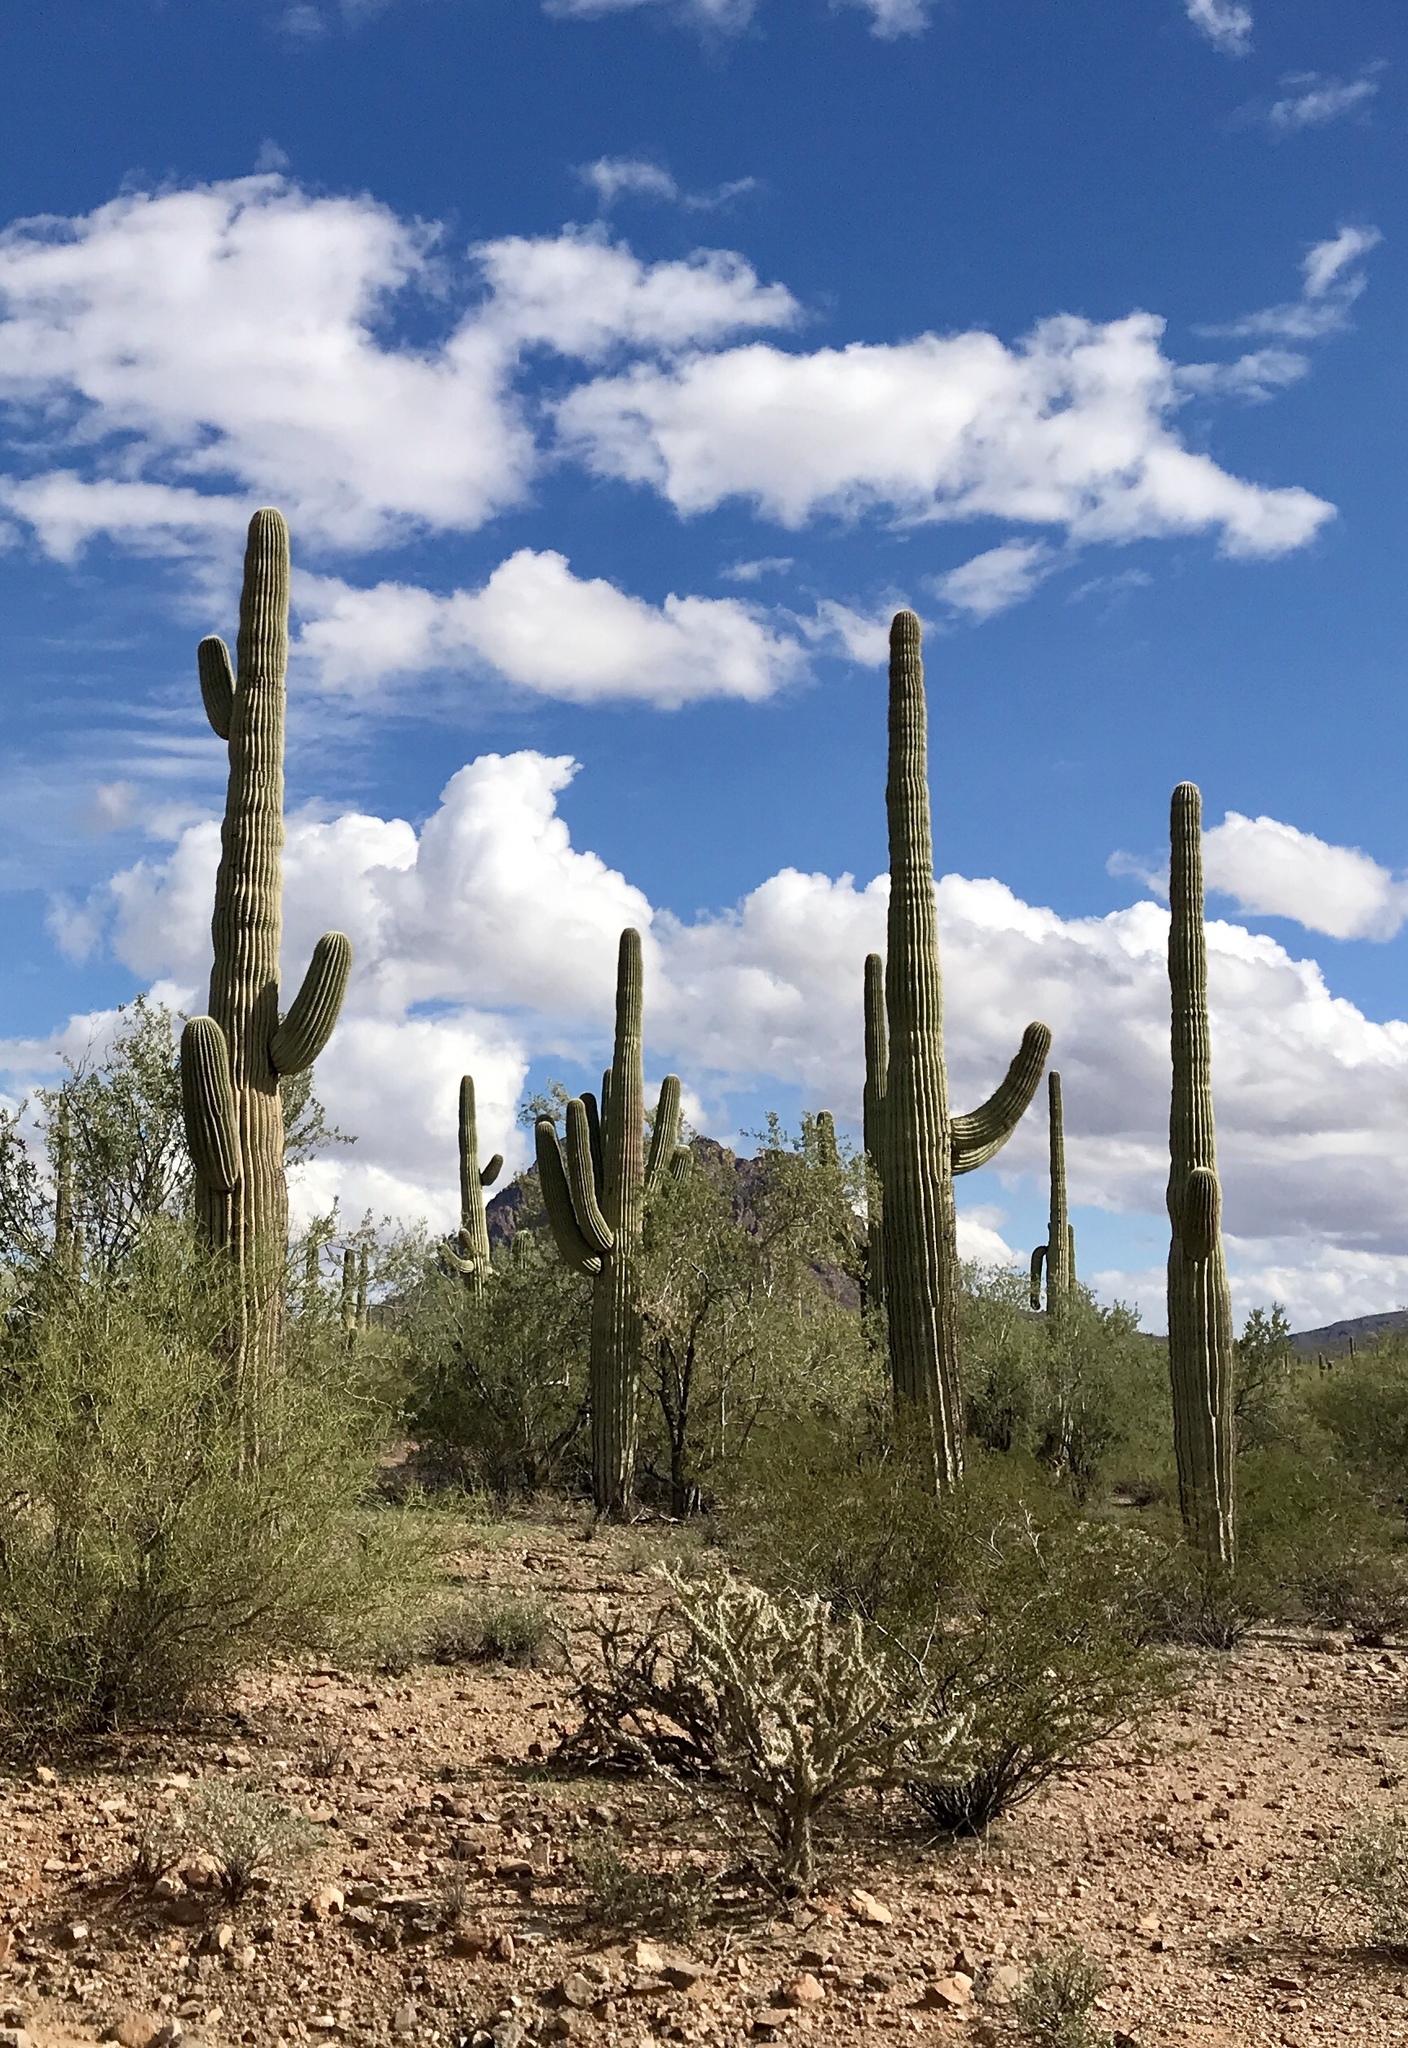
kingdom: Plantae
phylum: Tracheophyta
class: Magnoliopsida
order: Caryophyllales
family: Cactaceae
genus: Carnegiea
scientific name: Carnegiea gigantea
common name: Saguaro
